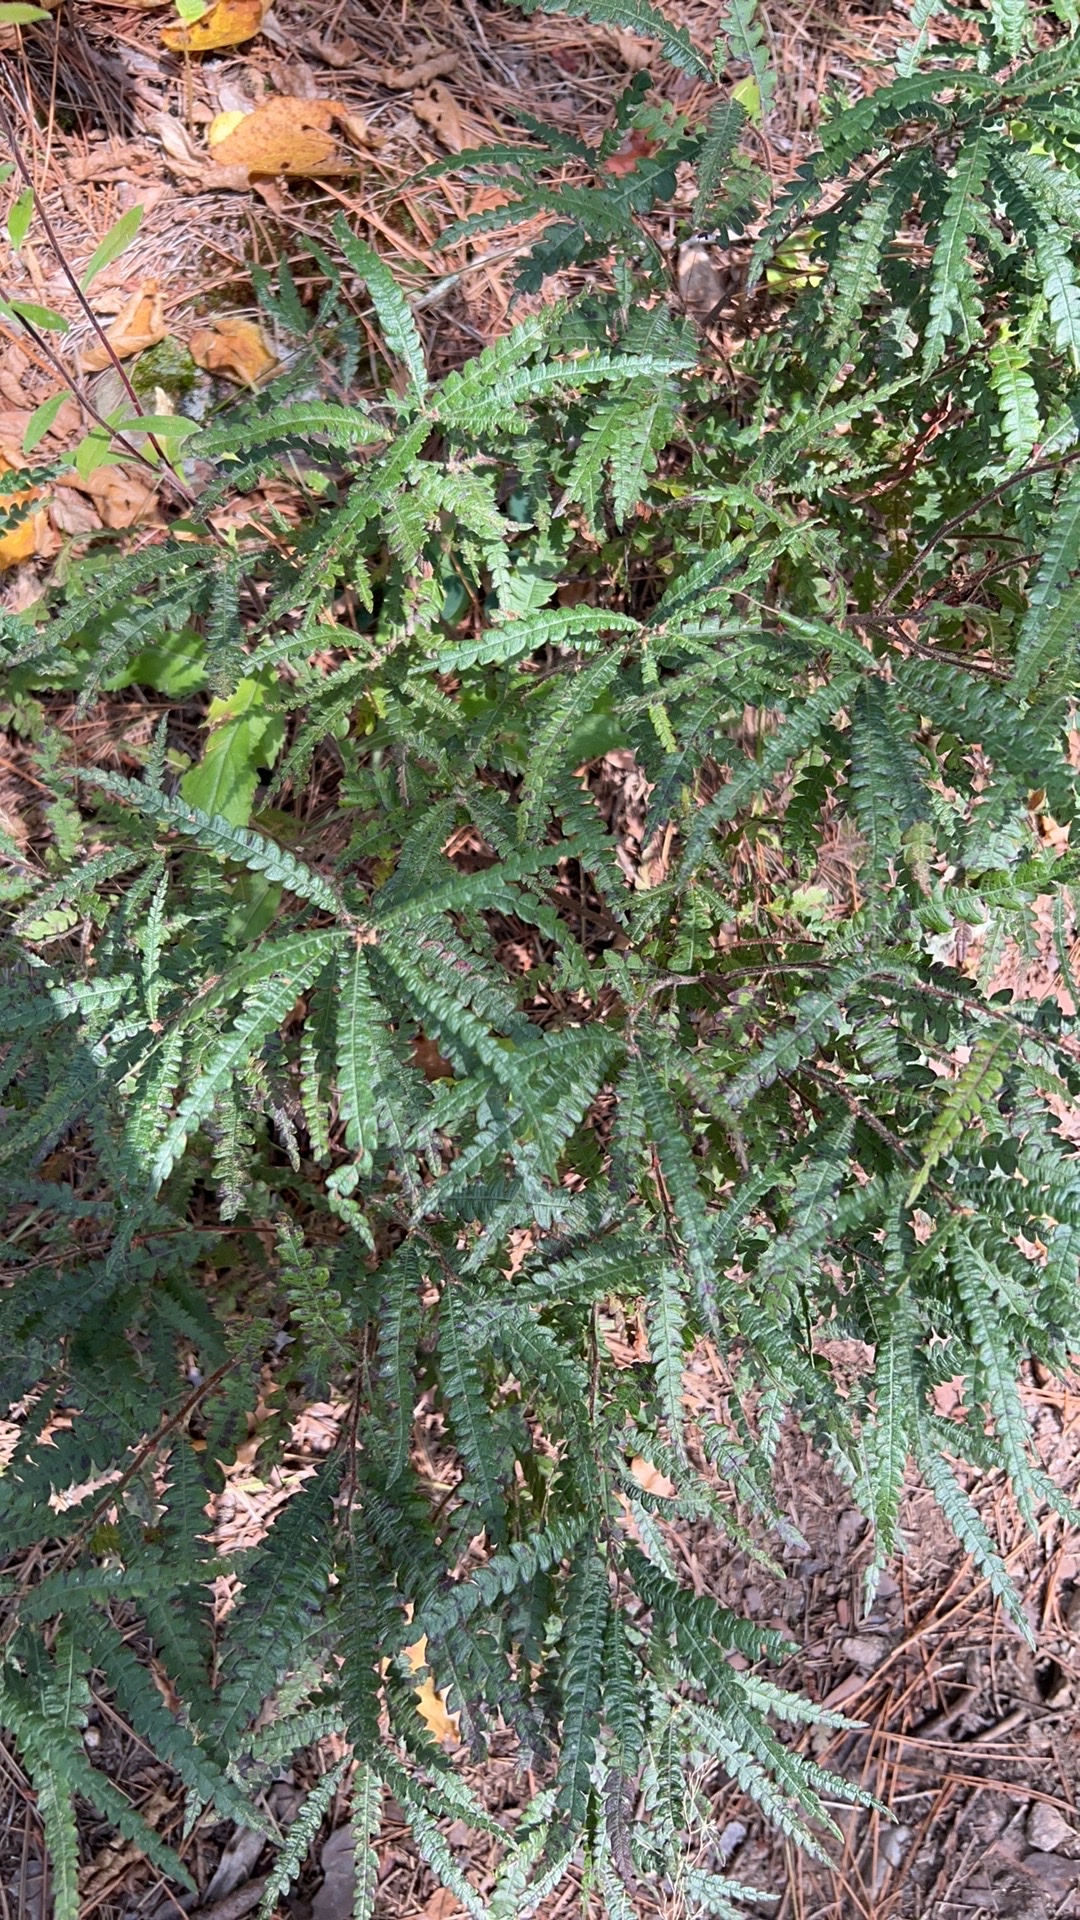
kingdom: Plantae
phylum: Tracheophyta
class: Magnoliopsida
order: Fagales
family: Myricaceae
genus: Comptonia
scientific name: Comptonia peregrina
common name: Sweet-fern
